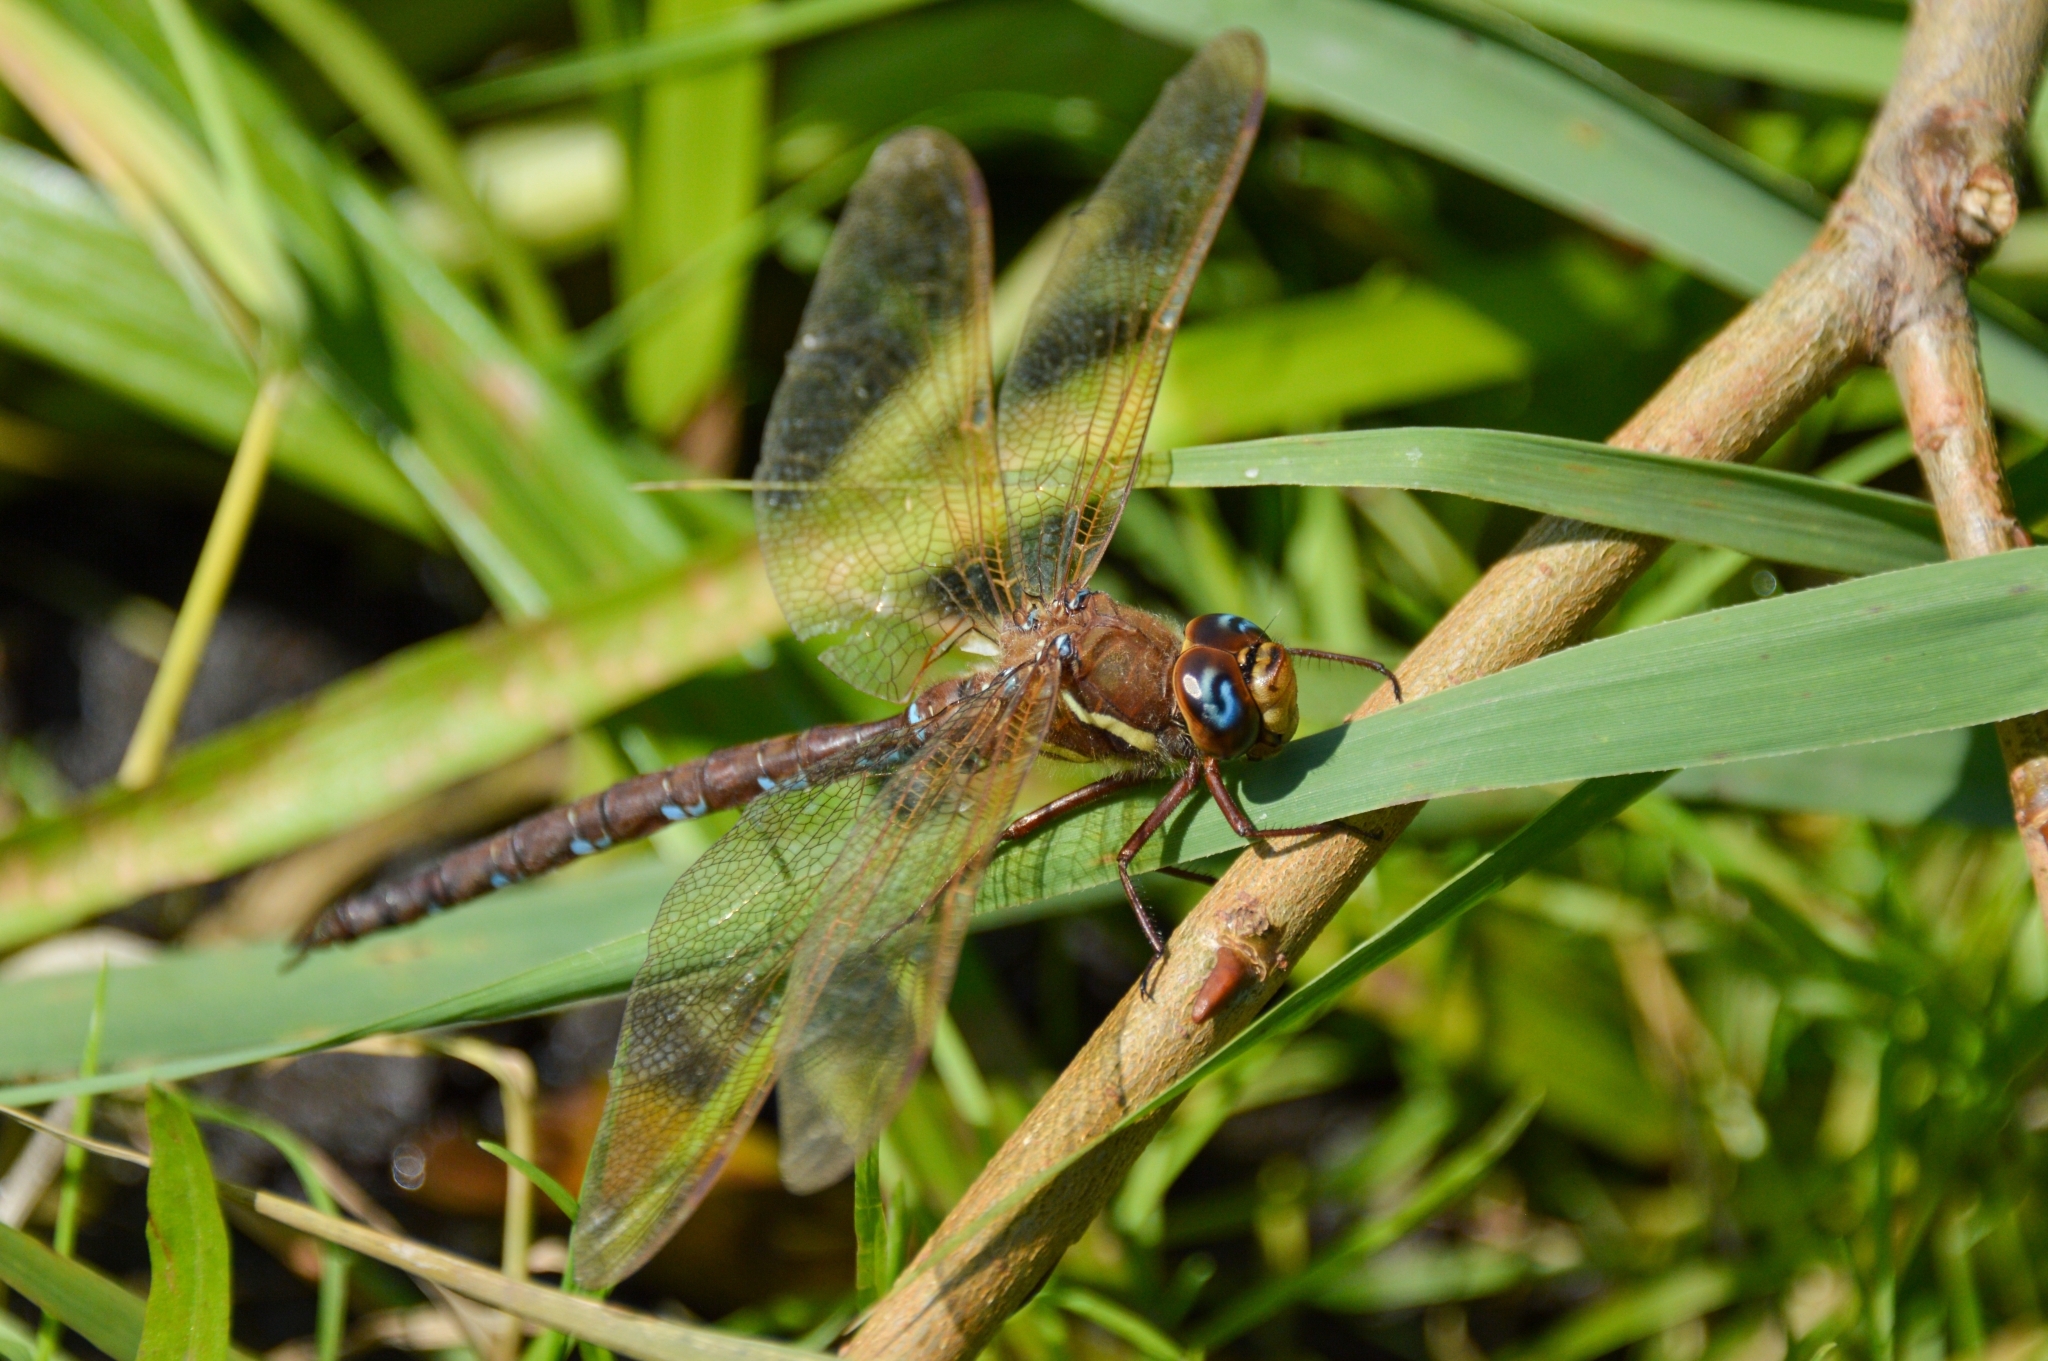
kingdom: Animalia
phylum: Arthropoda
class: Insecta
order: Odonata
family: Aeshnidae
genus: Aeshna
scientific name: Aeshna grandis
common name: Brown hawker
